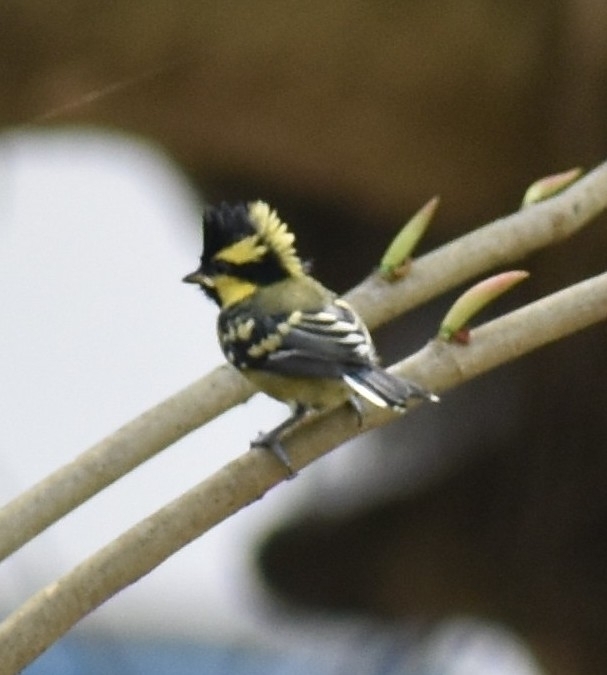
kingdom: Animalia
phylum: Chordata
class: Aves
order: Passeriformes
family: Paridae
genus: Parus
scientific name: Parus xanthogenys
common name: Black-lored tit
